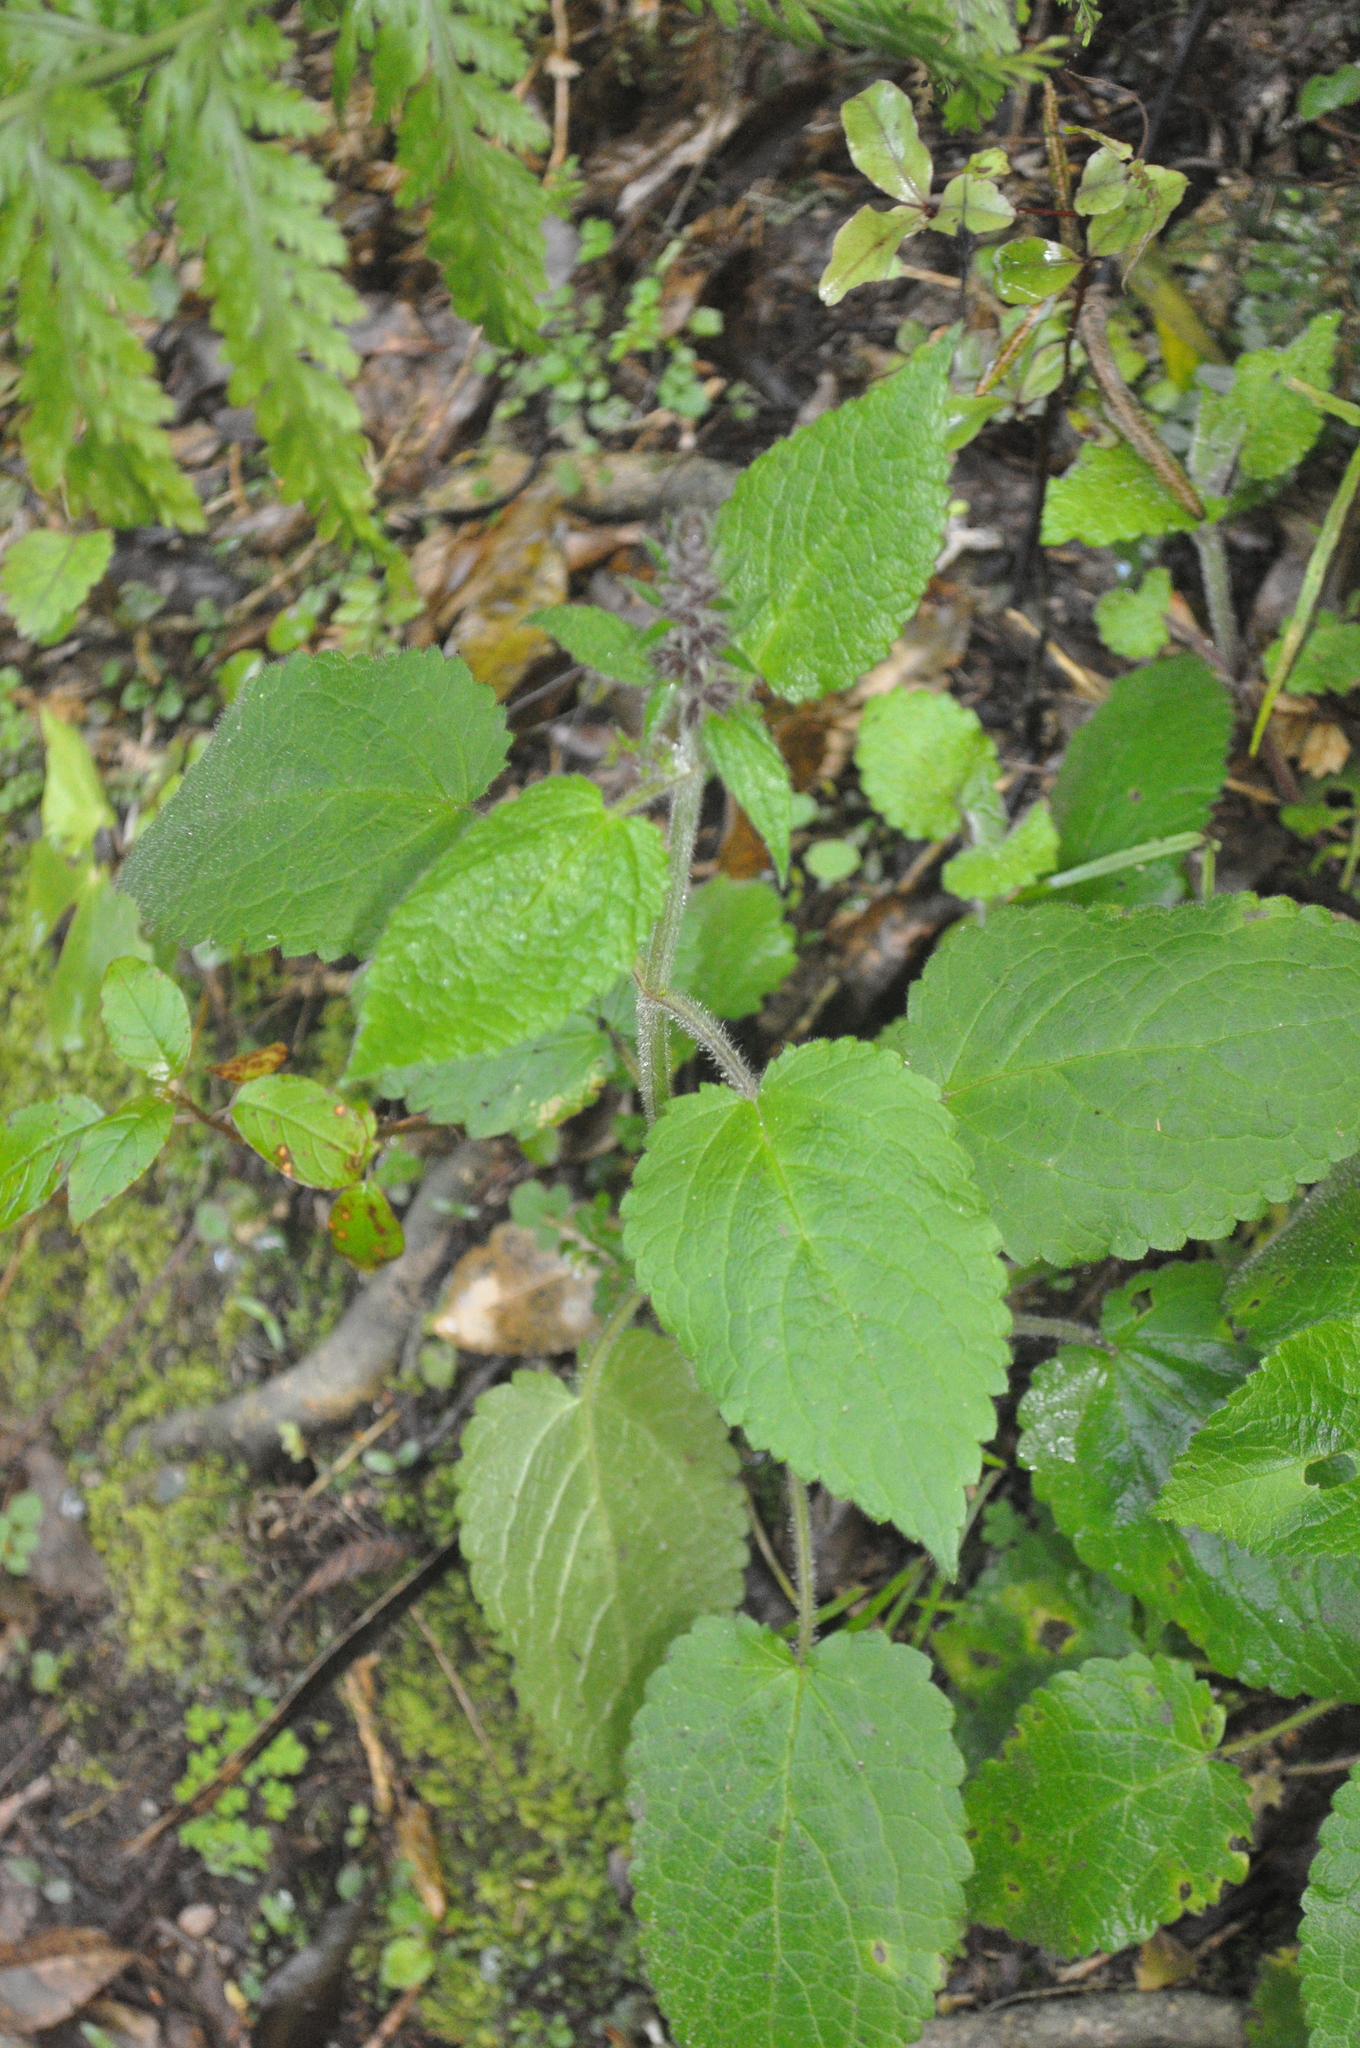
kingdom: Plantae
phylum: Tracheophyta
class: Magnoliopsida
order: Lamiales
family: Lamiaceae
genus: Stachys
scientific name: Stachys sylvatica
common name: Hedge woundwort
